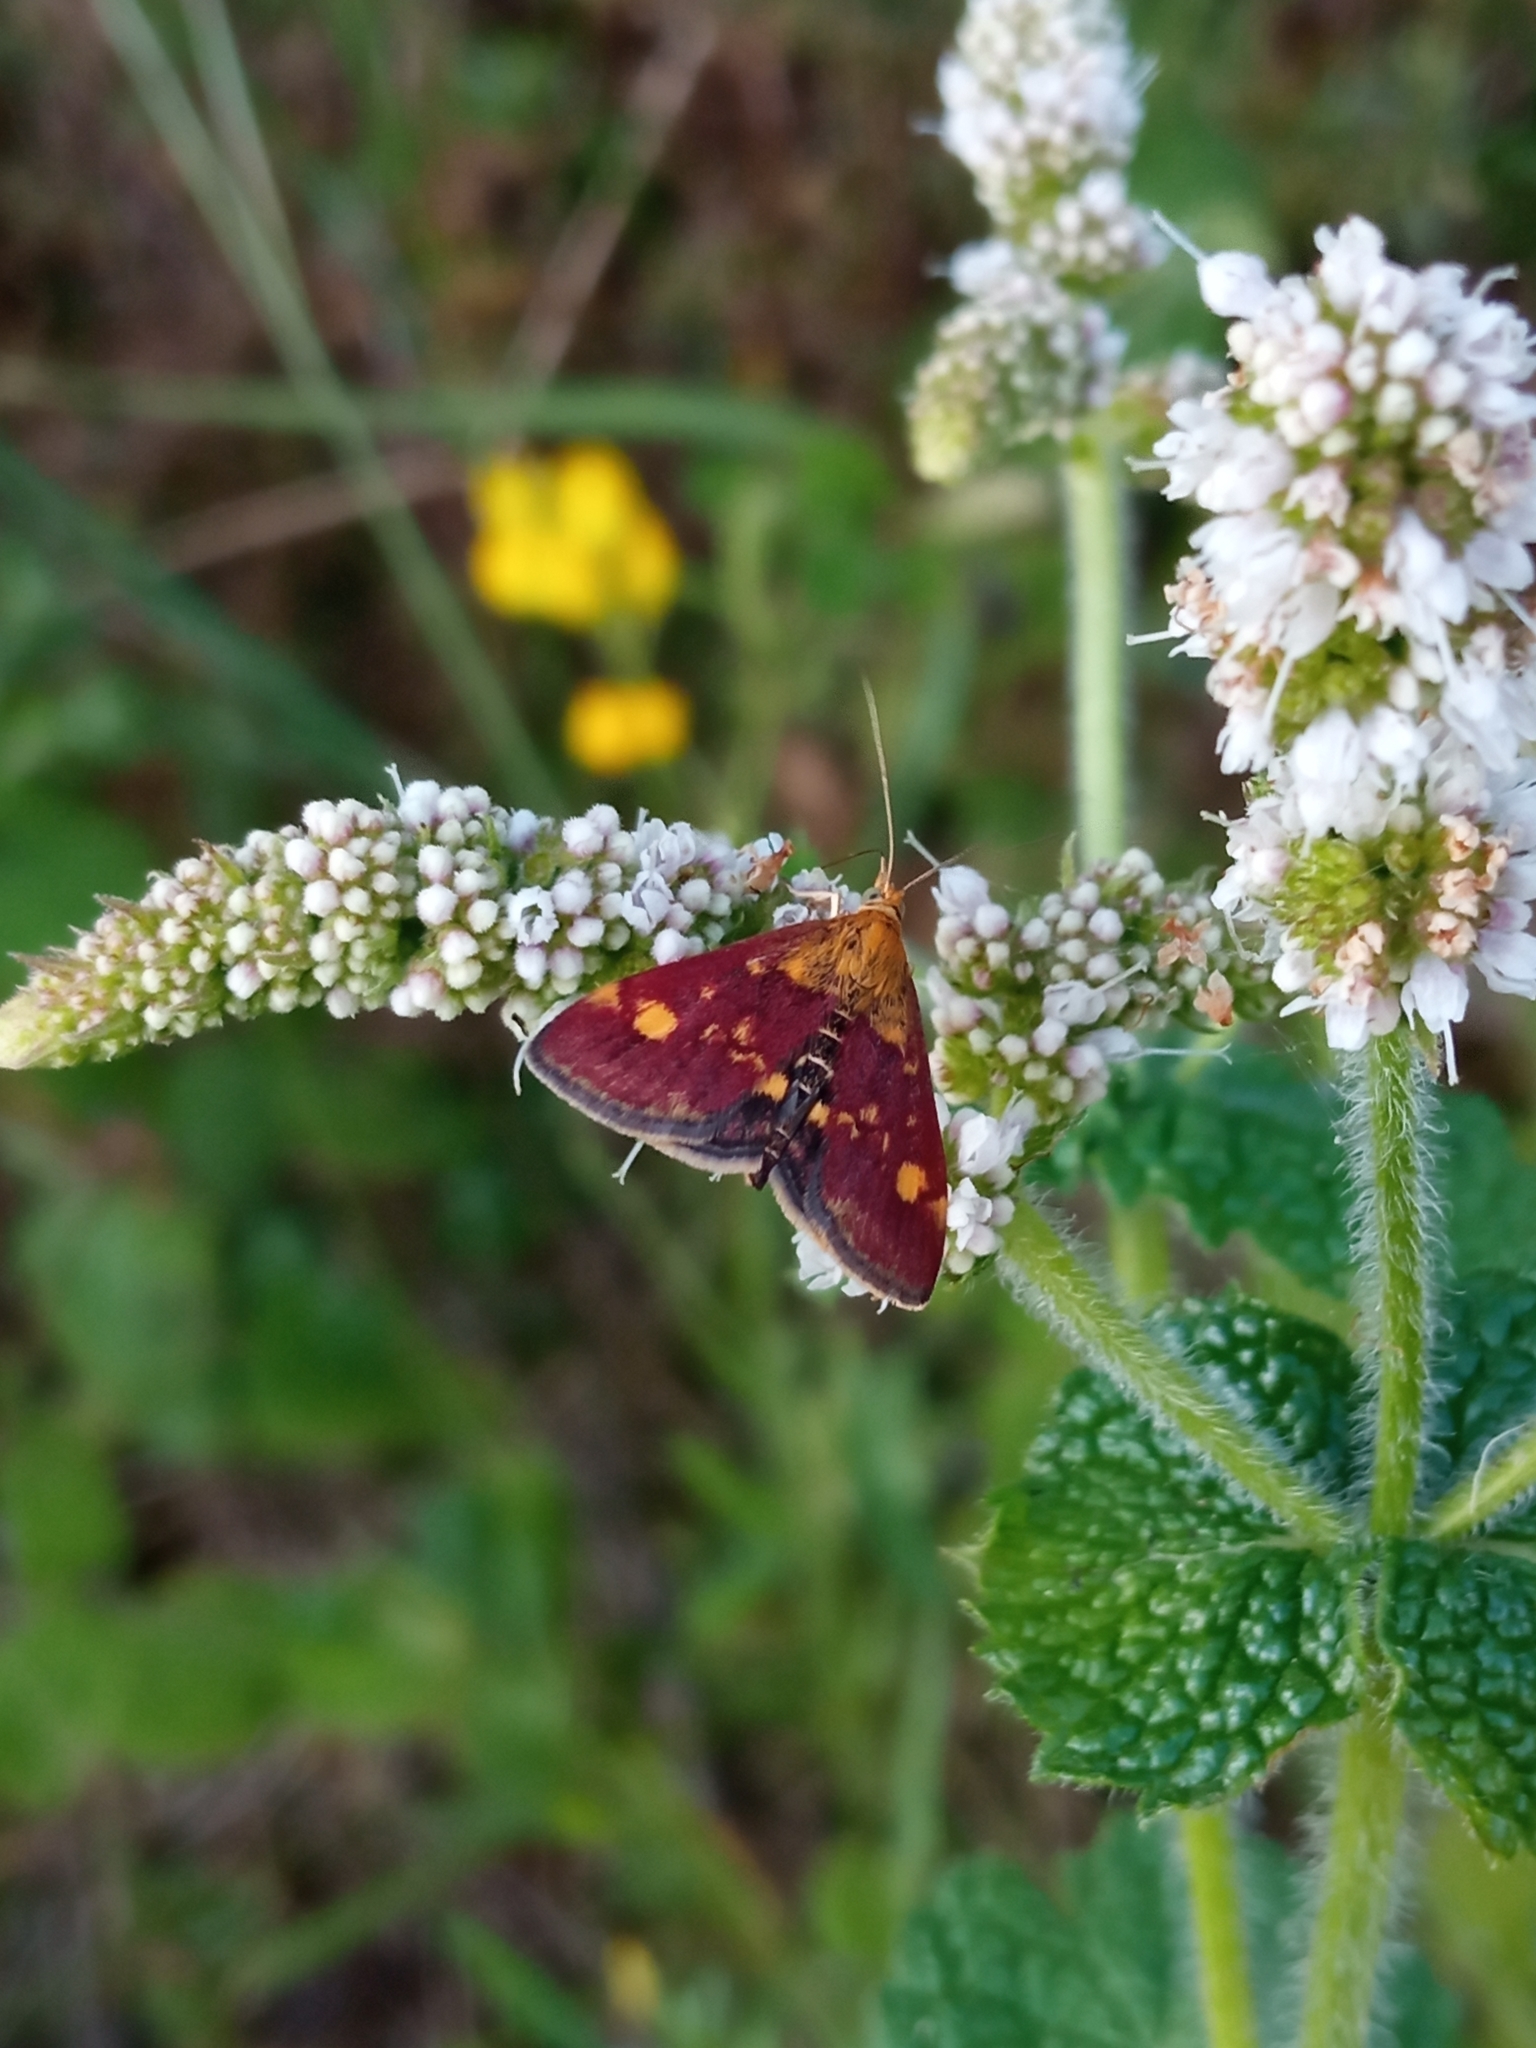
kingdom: Animalia
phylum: Arthropoda
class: Insecta
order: Lepidoptera
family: Crambidae
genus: Pyrausta
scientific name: Pyrausta aurata
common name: Small purple & gold
